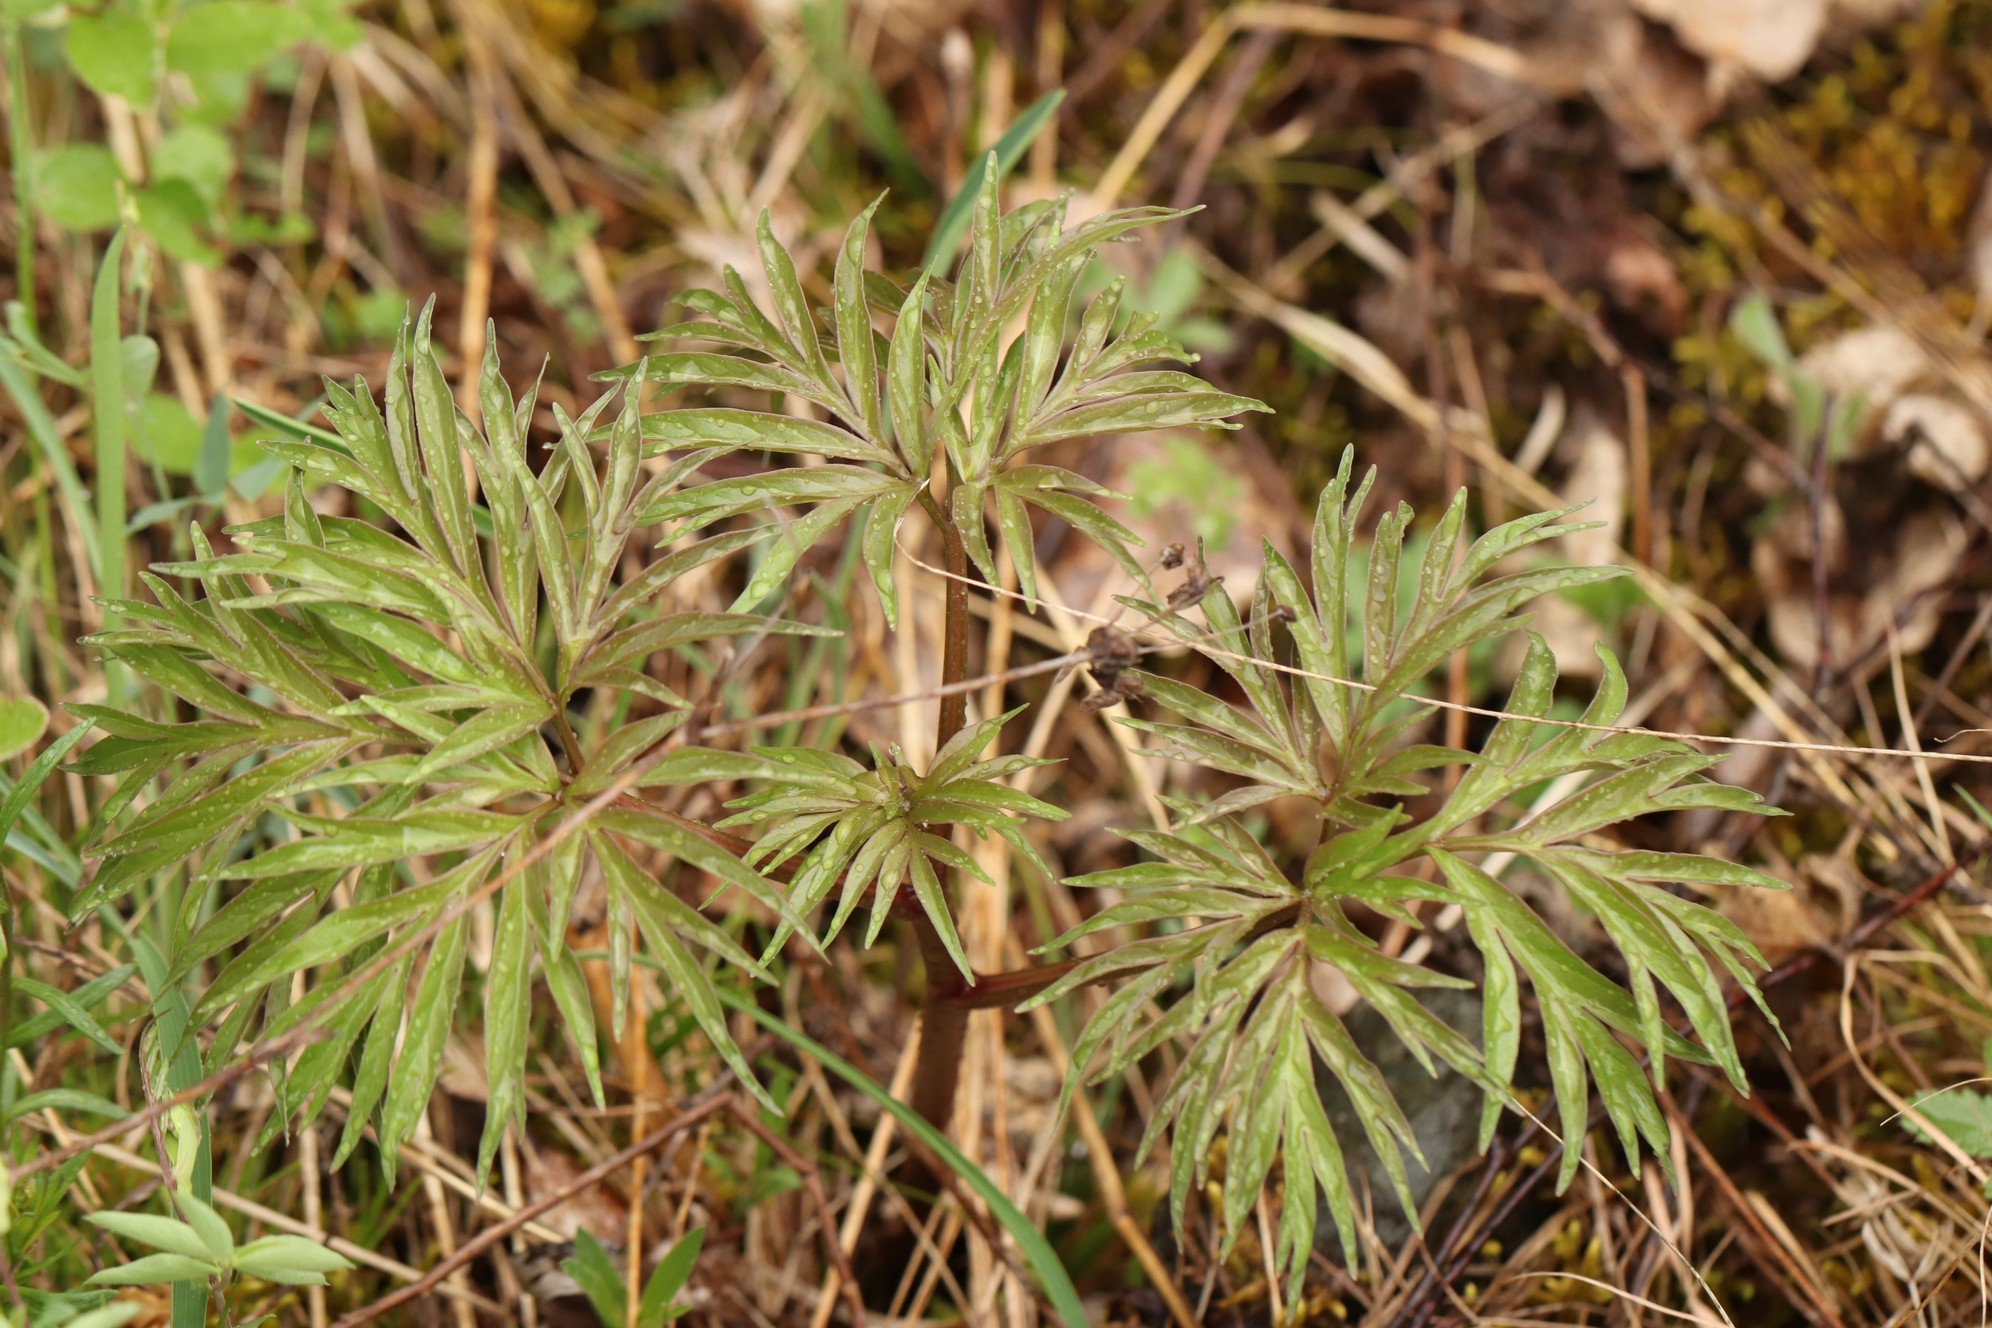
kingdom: Plantae
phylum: Tracheophyta
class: Magnoliopsida
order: Saxifragales
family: Paeoniaceae
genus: Paeonia
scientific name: Paeonia anomala
